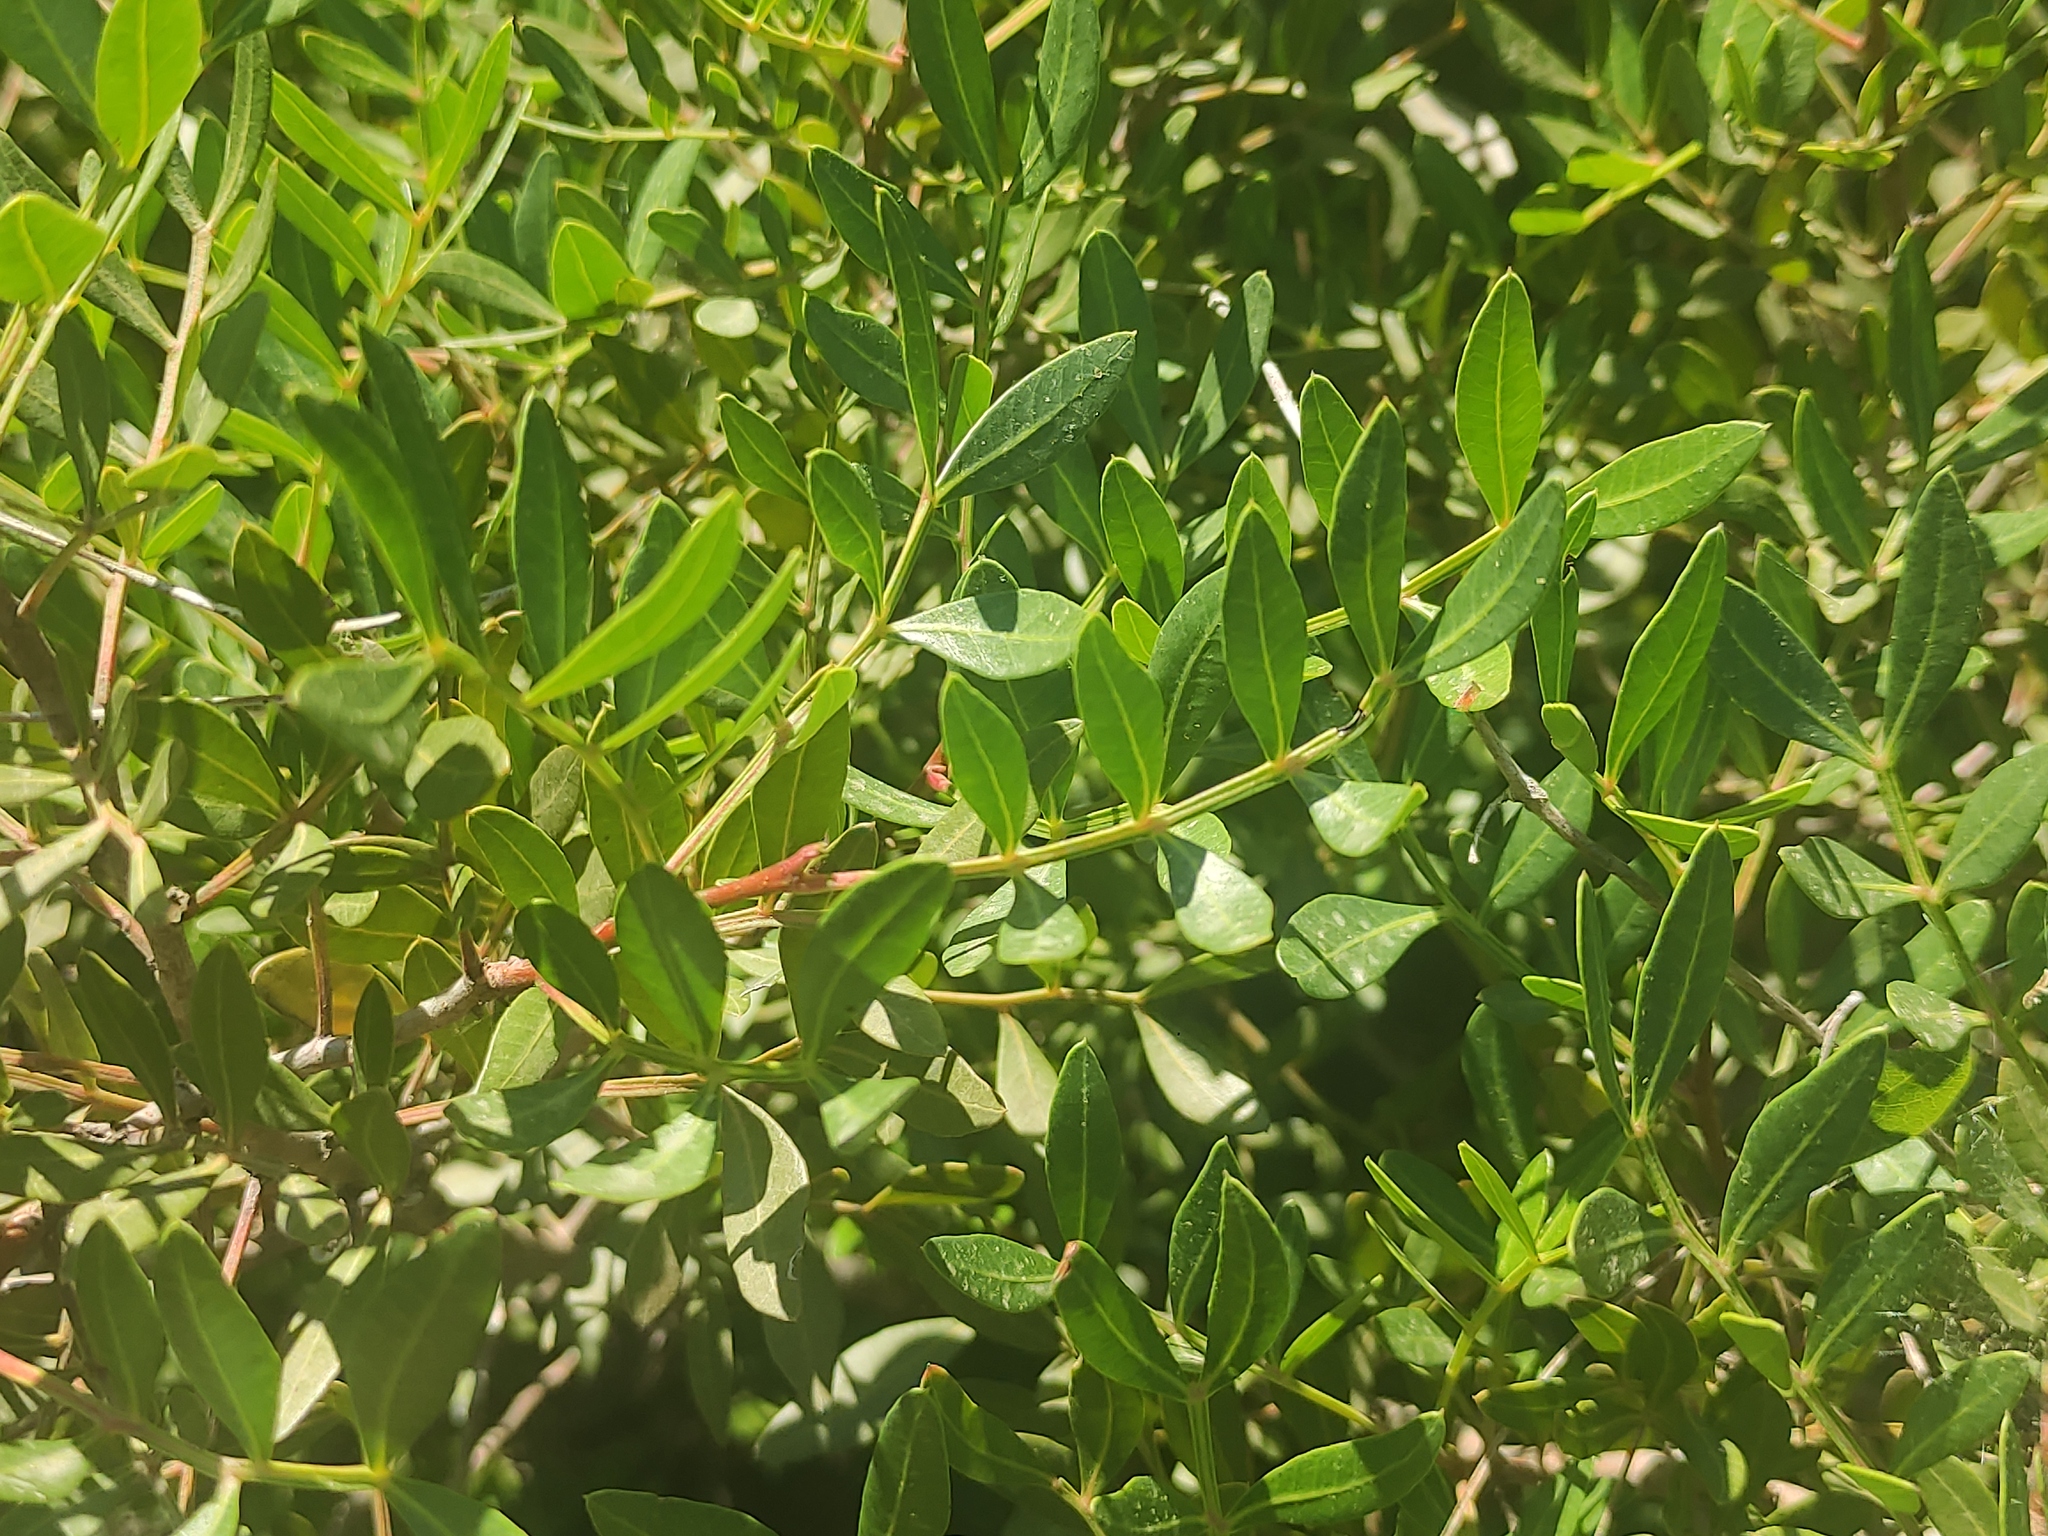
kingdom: Plantae
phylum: Tracheophyta
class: Magnoliopsida
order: Sapindales
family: Anacardiaceae
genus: Pistacia
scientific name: Pistacia lentiscus
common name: Lentisk
